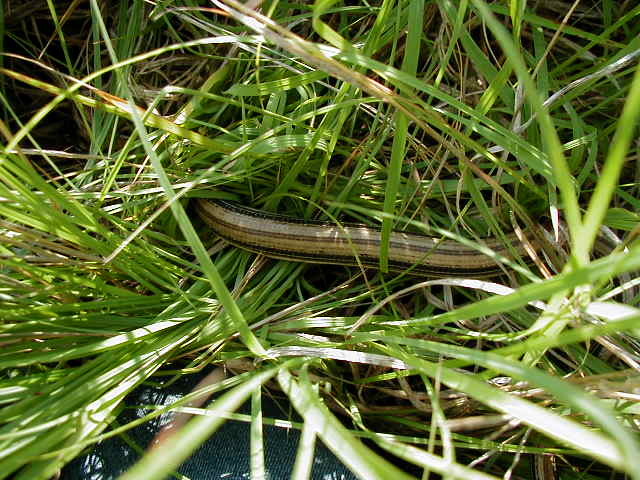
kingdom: Animalia
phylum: Chordata
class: Squamata
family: Anguidae
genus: Ophisaurus
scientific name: Ophisaurus attenuatus
